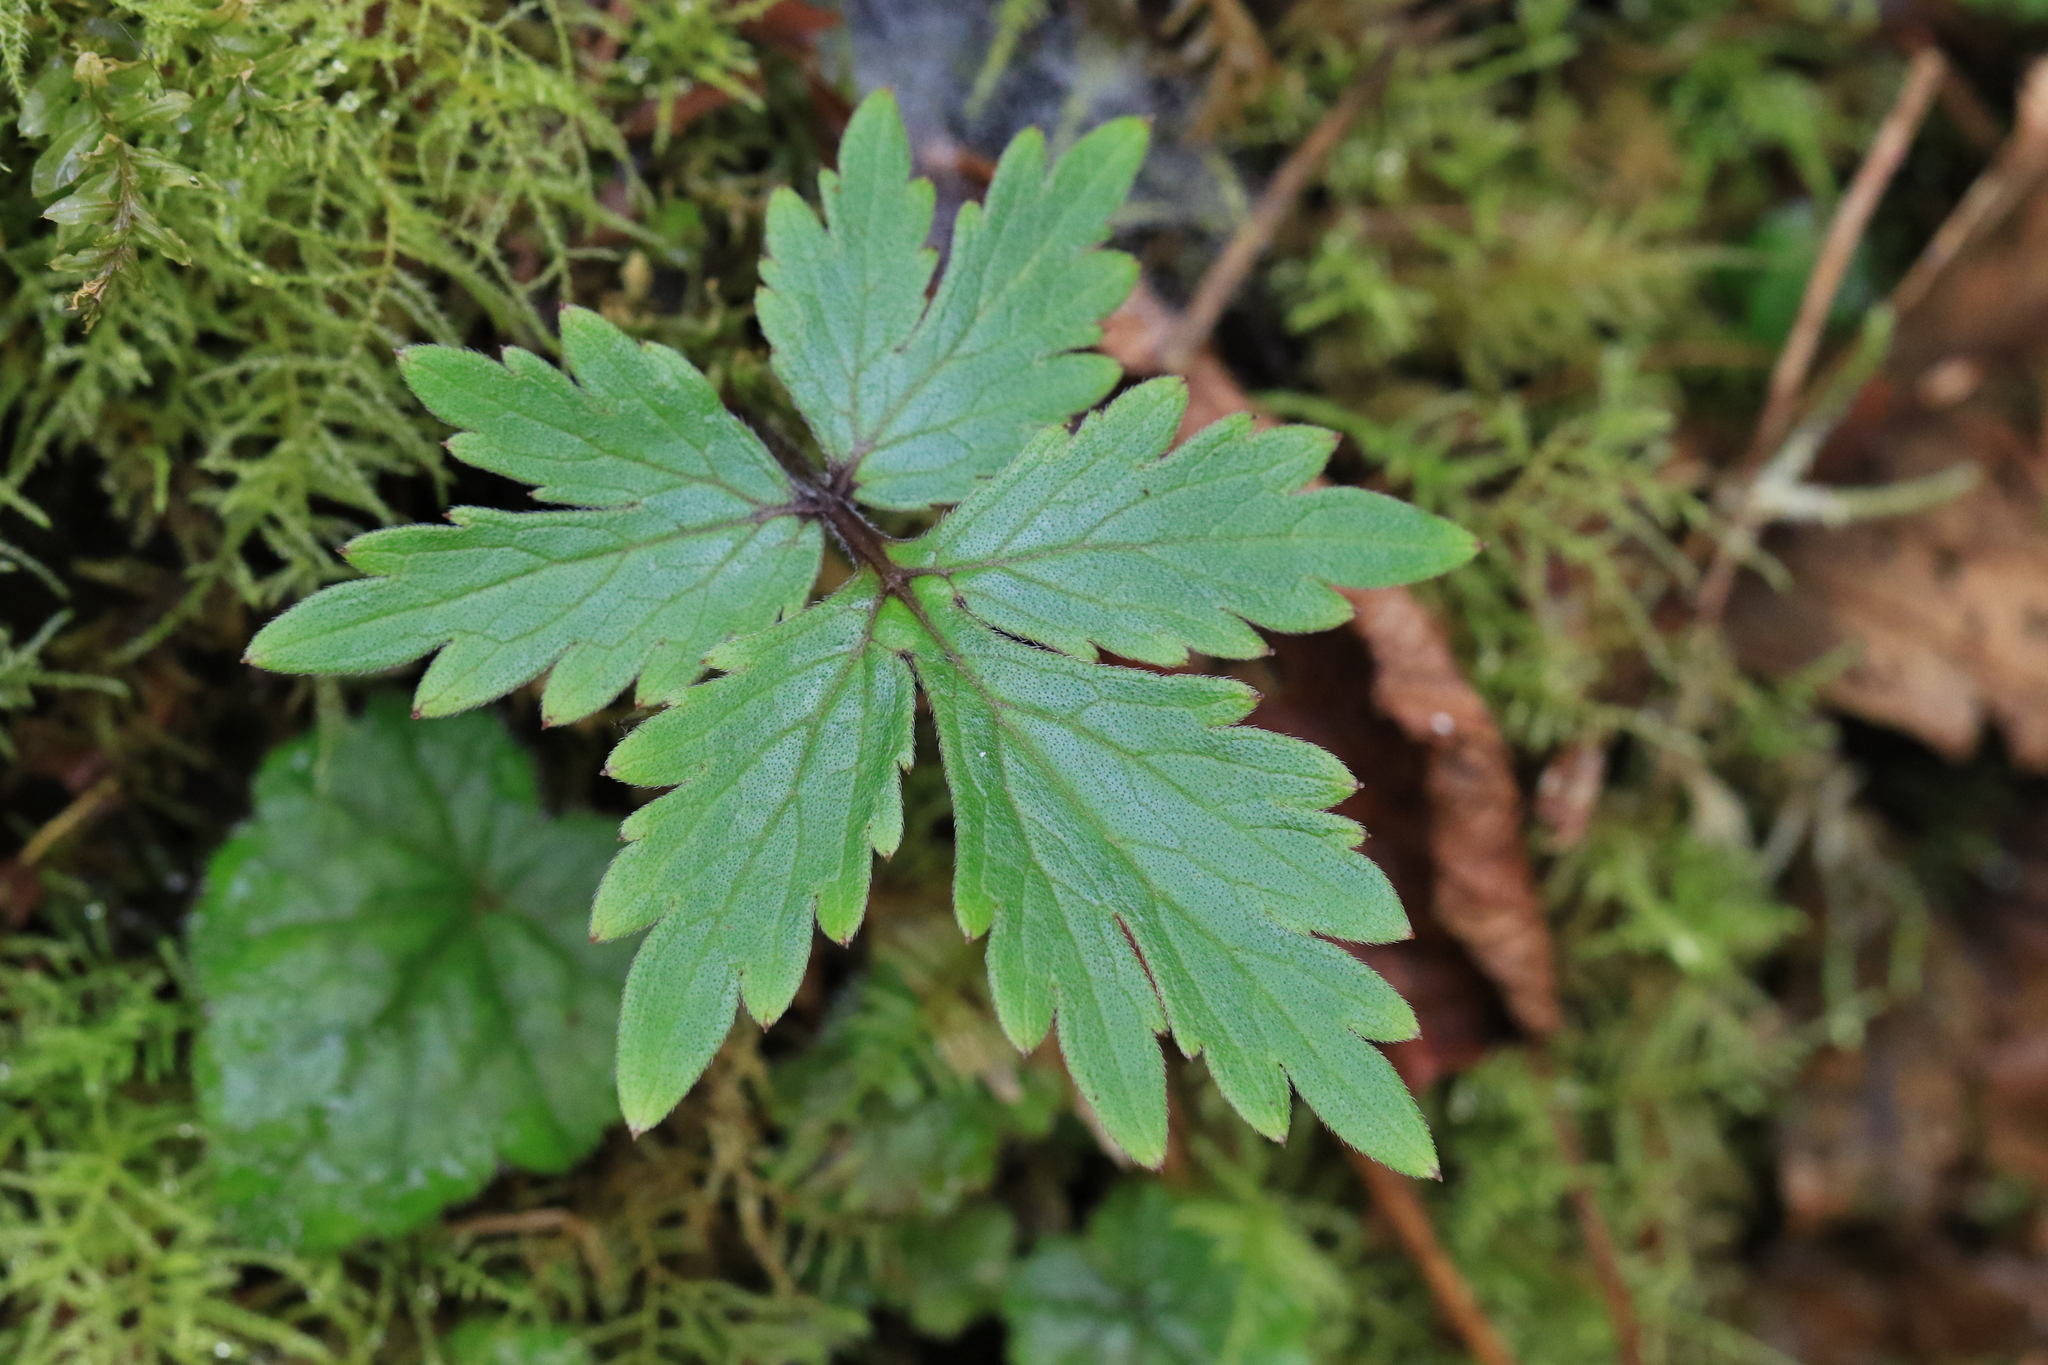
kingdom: Plantae
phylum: Tracheophyta
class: Magnoliopsida
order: Boraginales
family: Hydrophyllaceae
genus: Hydrophyllum
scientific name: Hydrophyllum tenuipes
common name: Pacific waterleaf
